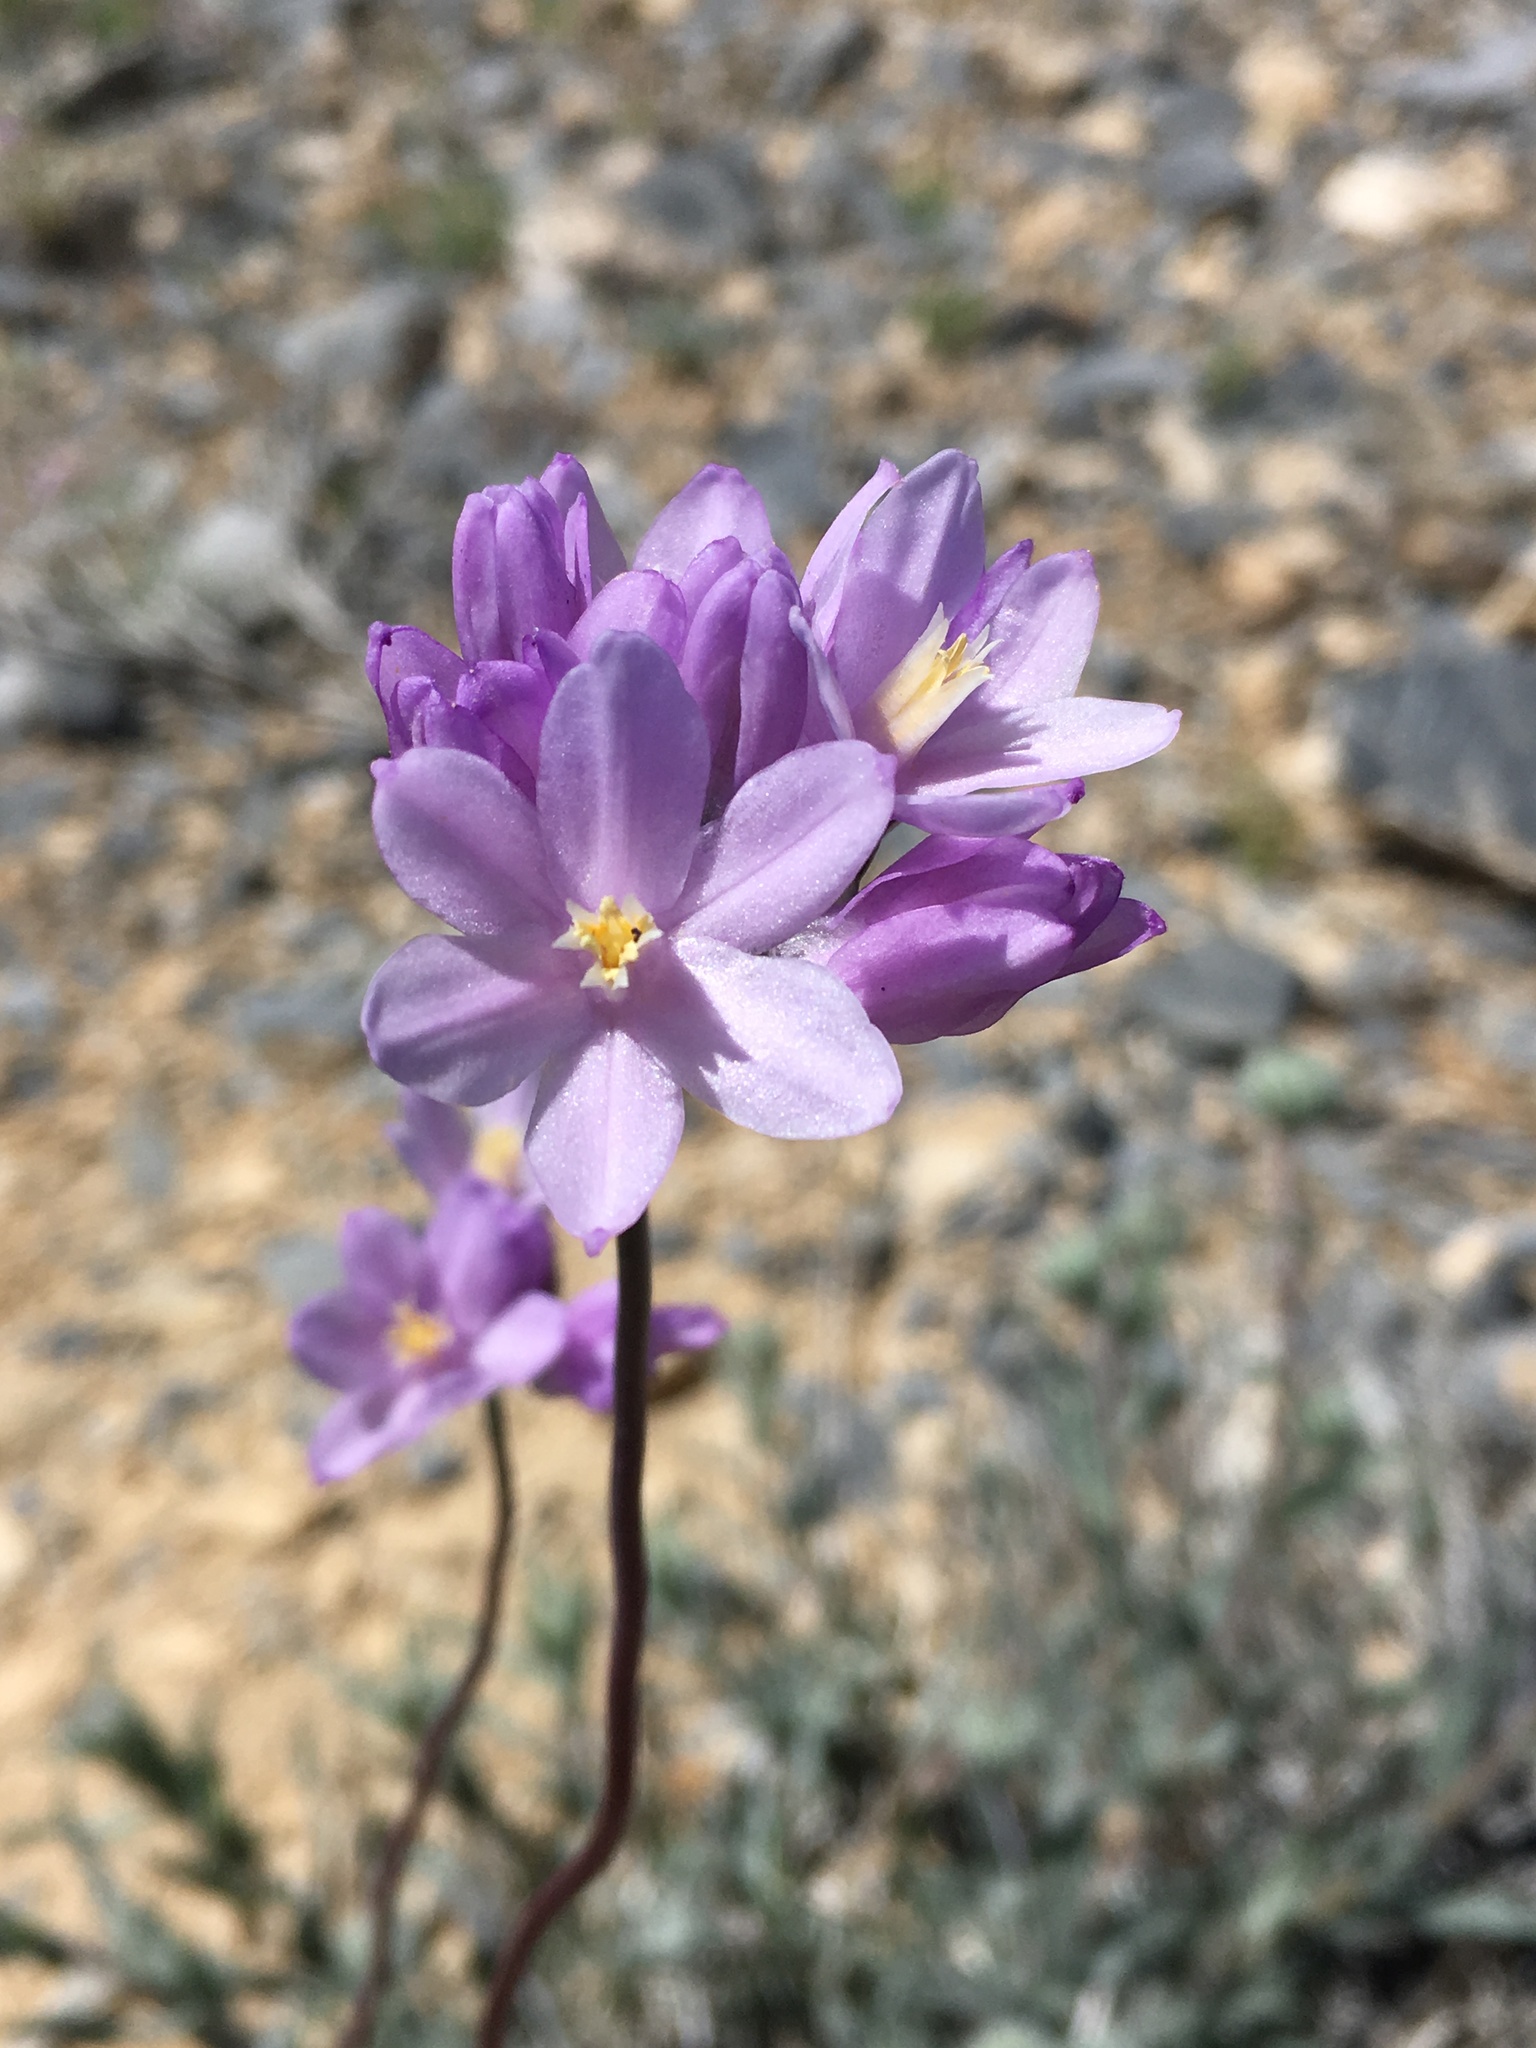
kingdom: Plantae
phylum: Tracheophyta
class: Liliopsida
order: Asparagales
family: Asparagaceae
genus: Dipterostemon
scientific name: Dipterostemon capitatus
